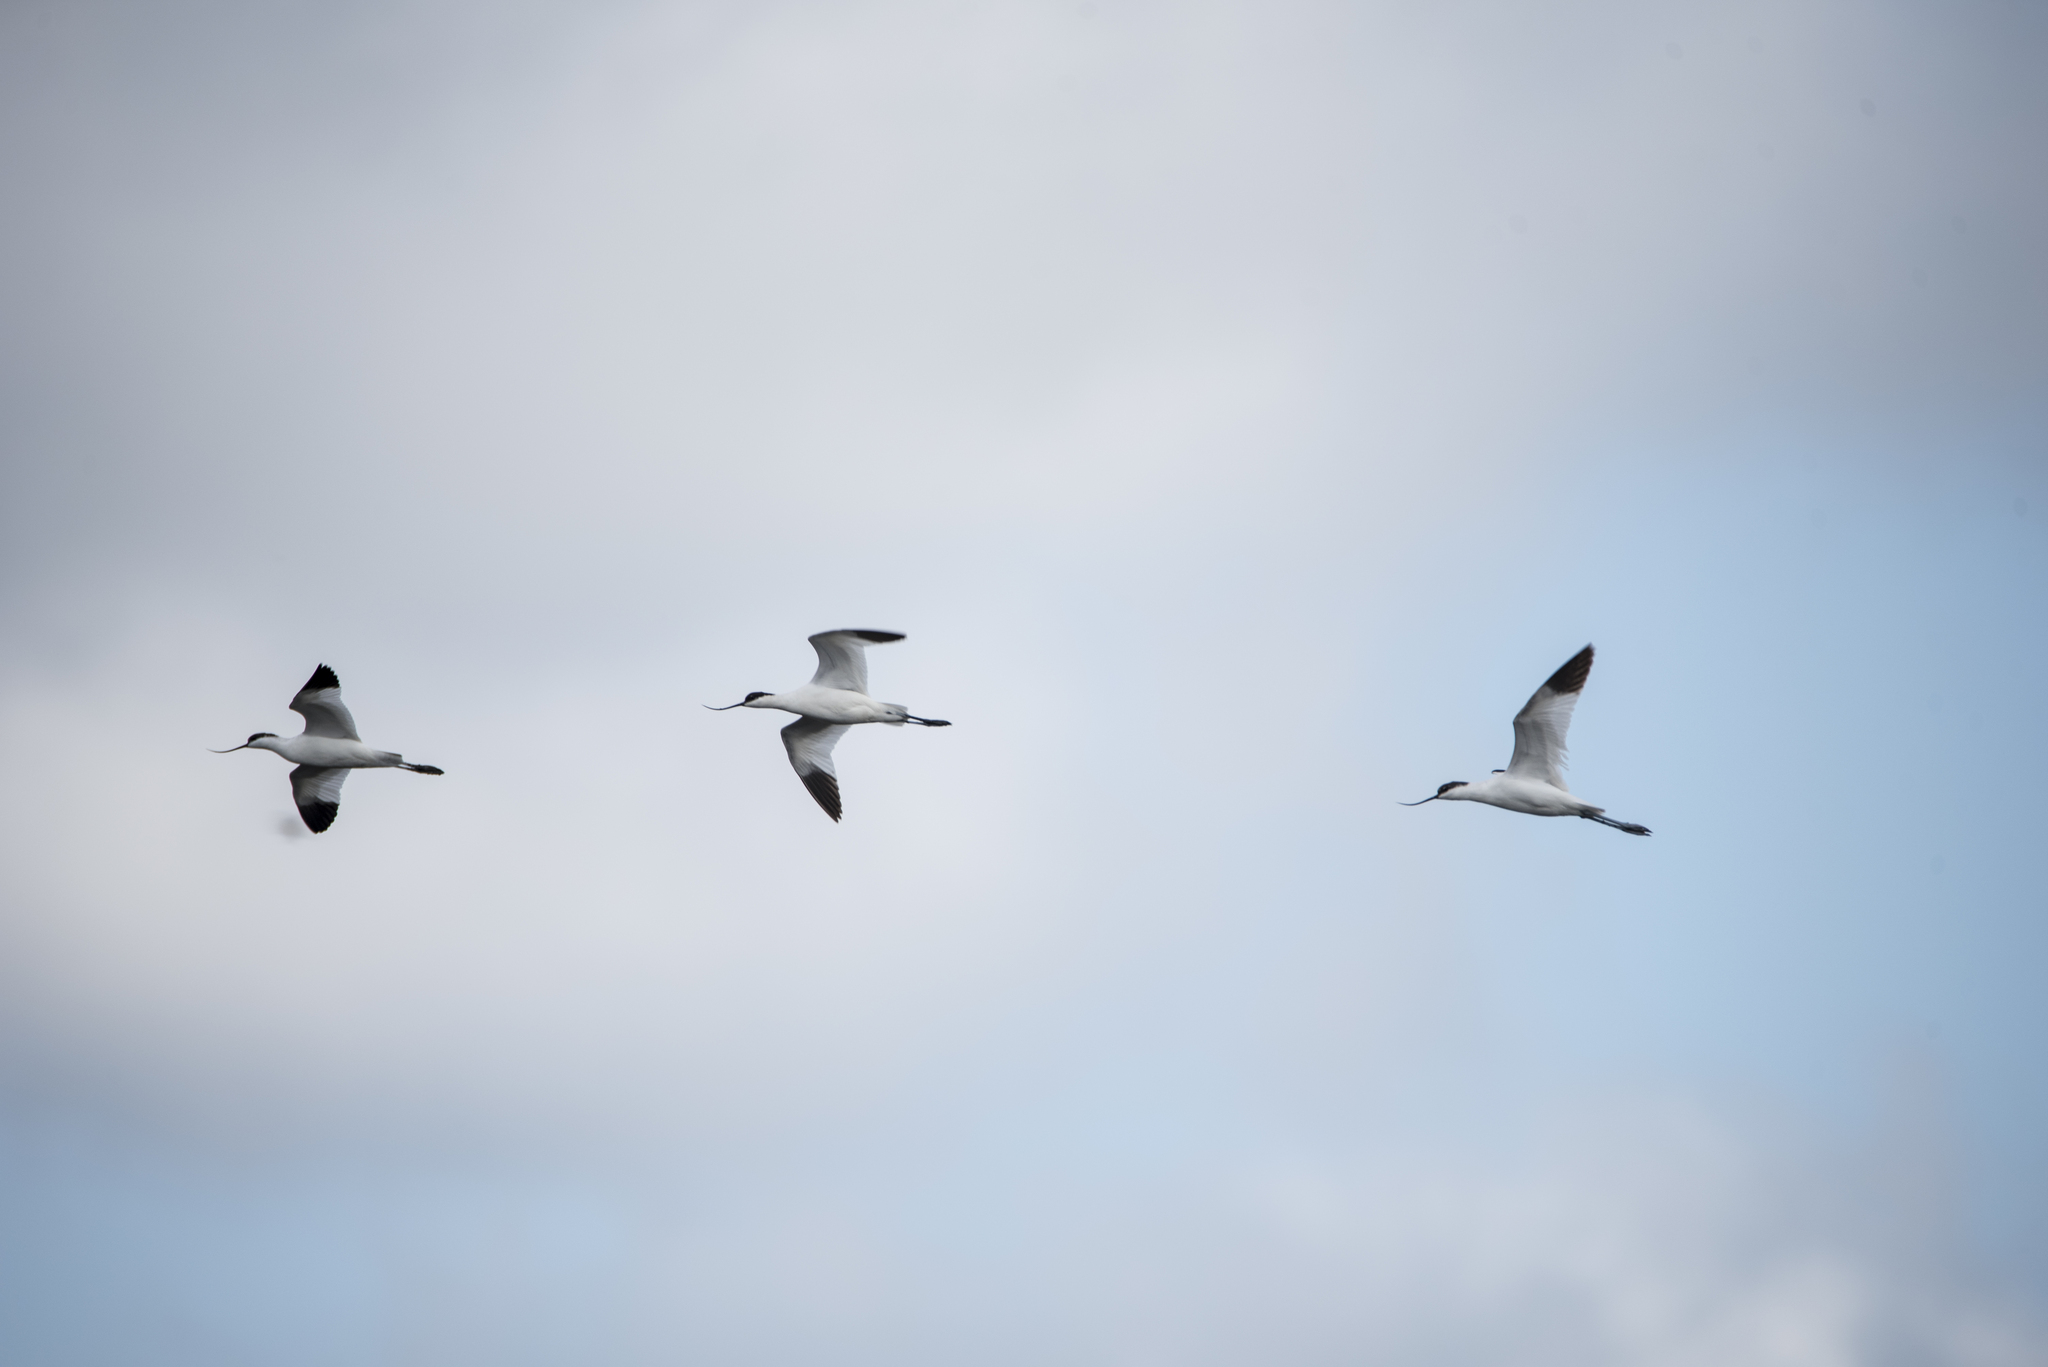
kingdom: Animalia
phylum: Chordata
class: Aves
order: Charadriiformes
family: Recurvirostridae
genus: Recurvirostra
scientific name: Recurvirostra avosetta
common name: Pied avocet
